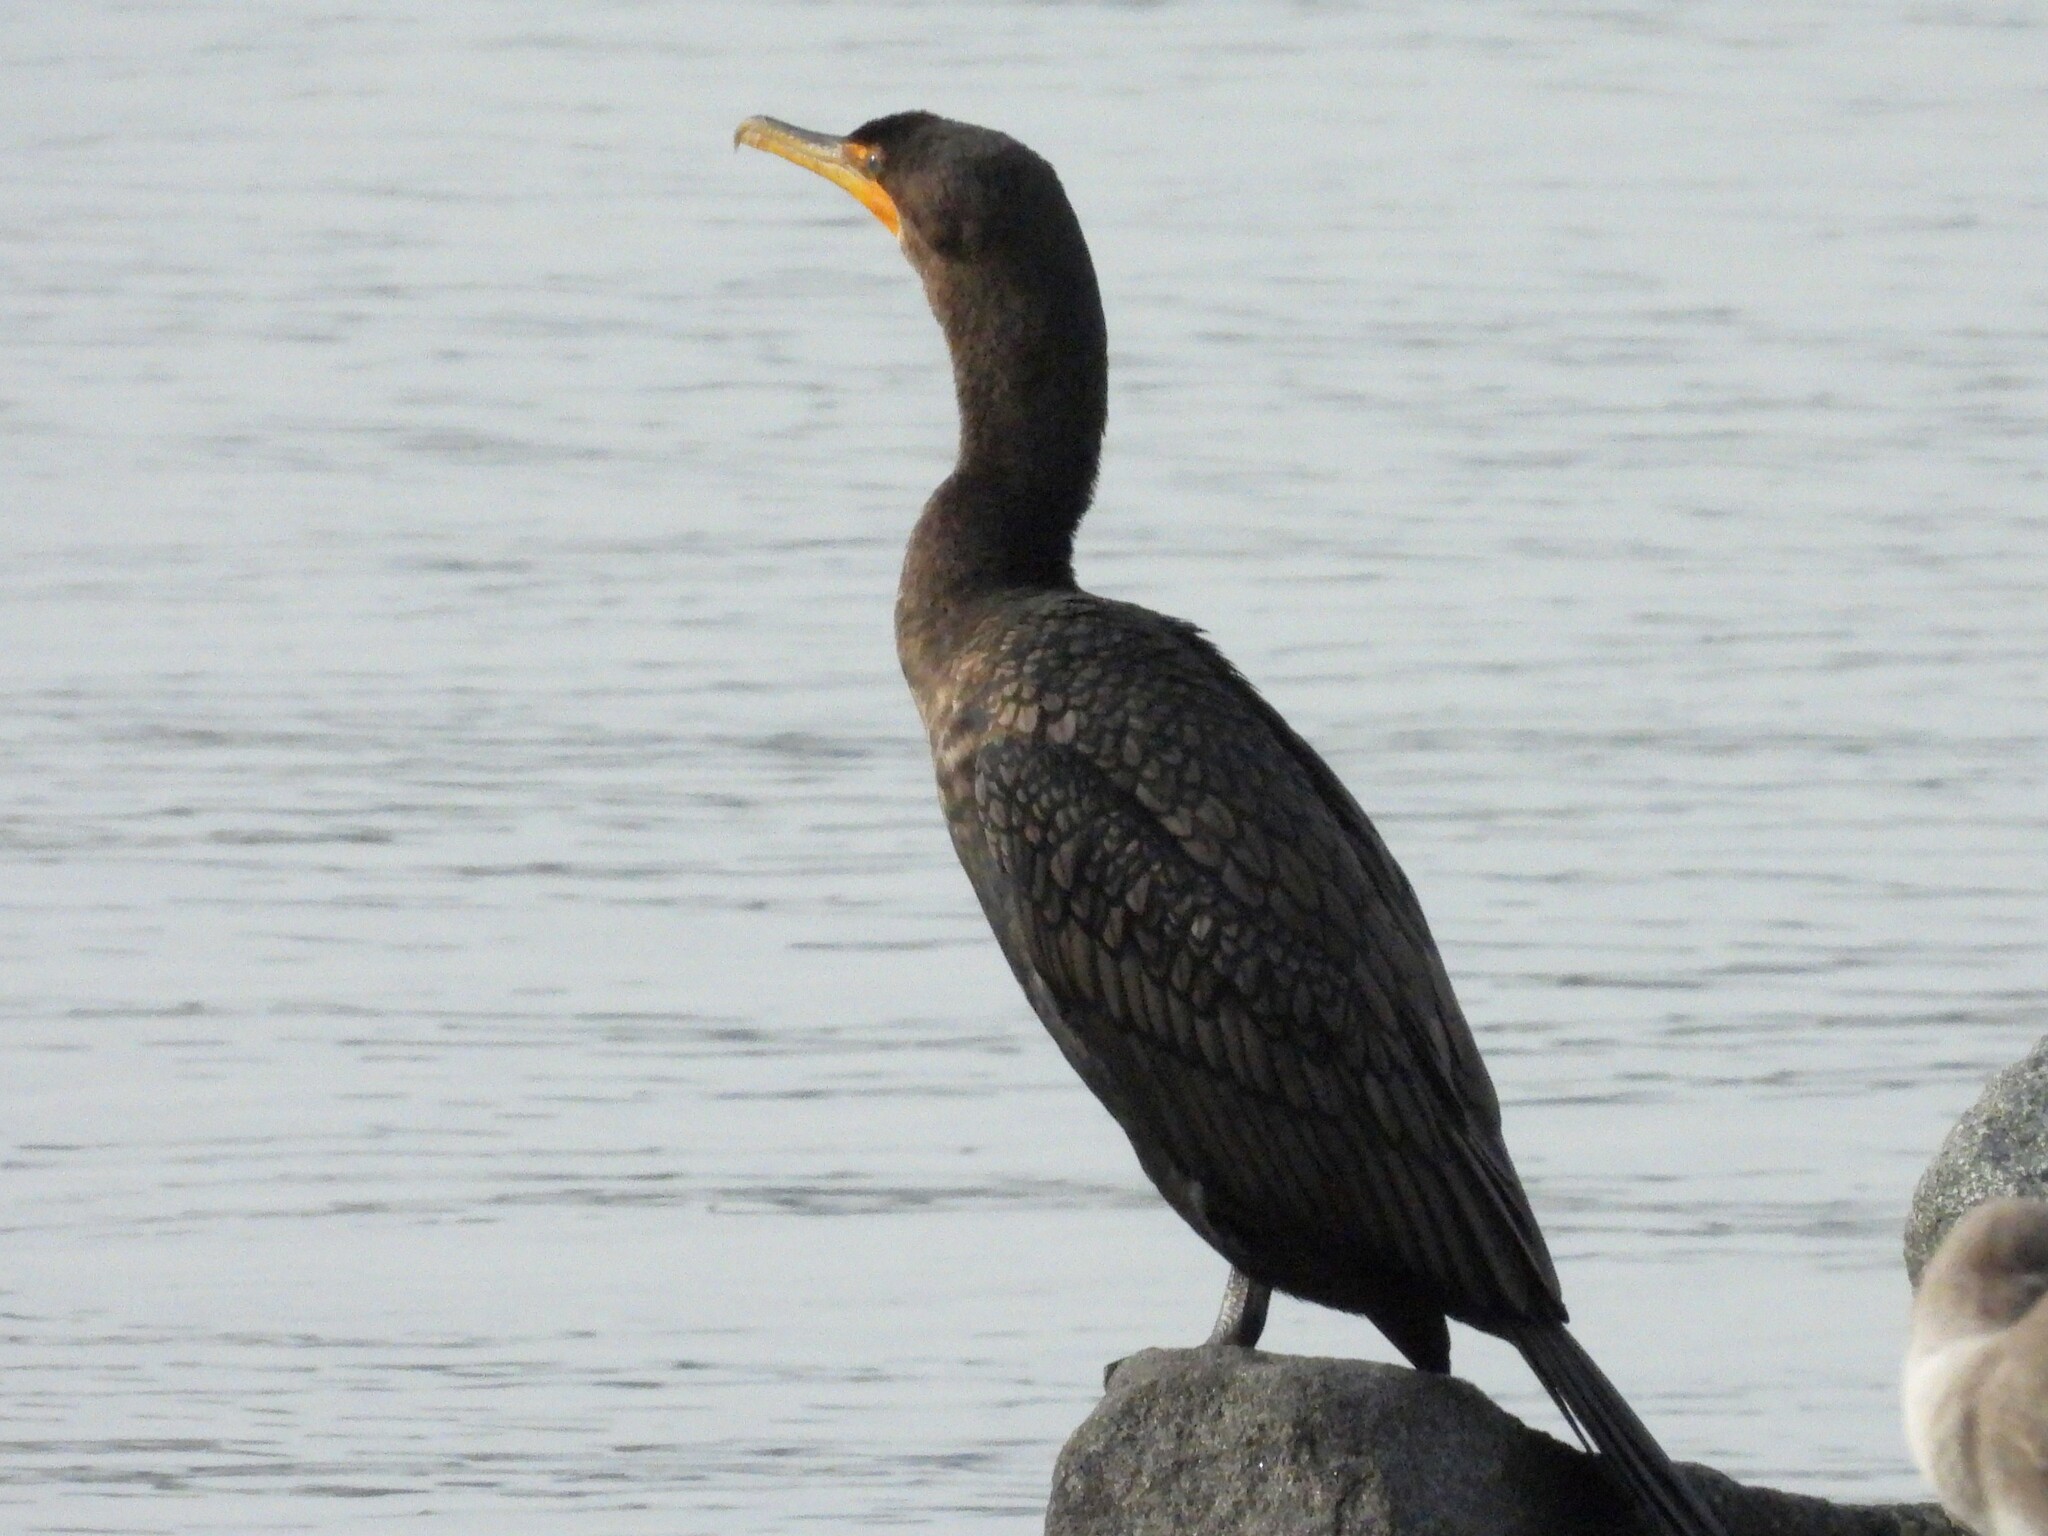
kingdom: Animalia
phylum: Chordata
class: Aves
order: Suliformes
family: Phalacrocoracidae
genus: Phalacrocorax
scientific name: Phalacrocorax auritus
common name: Double-crested cormorant
